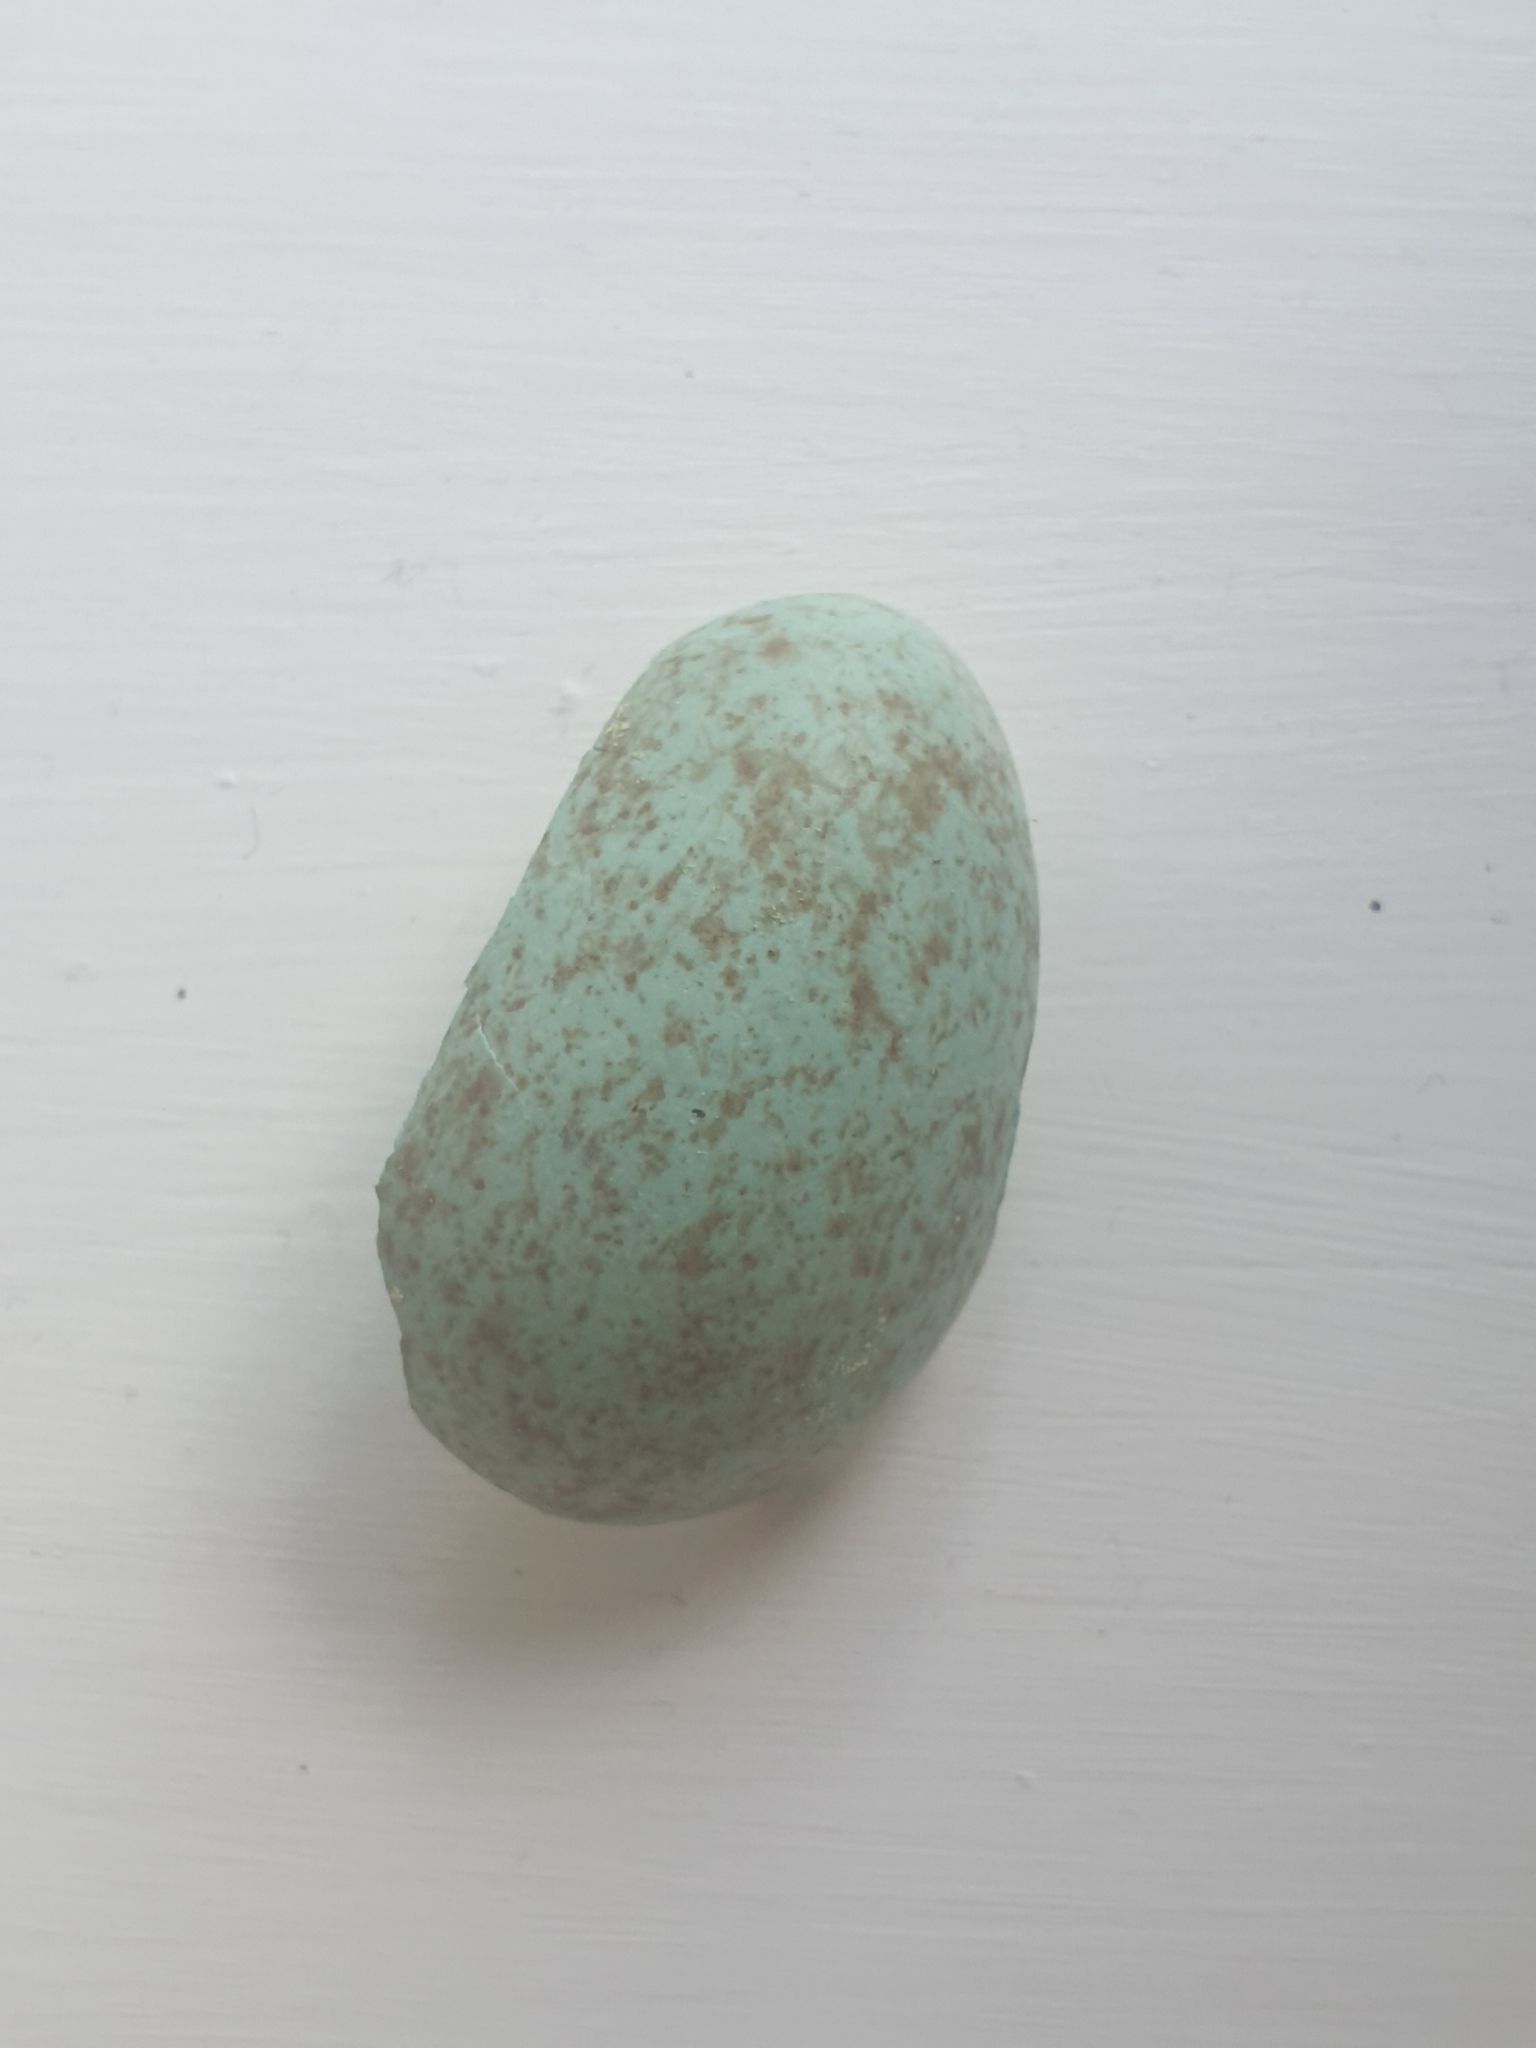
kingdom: Animalia
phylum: Chordata
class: Aves
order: Passeriformes
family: Turdidae
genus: Turdus
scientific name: Turdus merula
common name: Common blackbird
